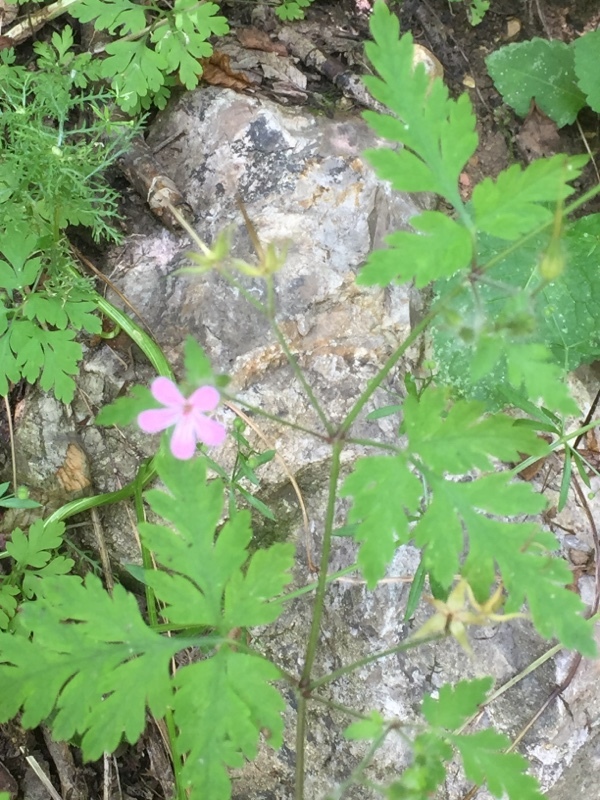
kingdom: Plantae
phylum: Tracheophyta
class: Magnoliopsida
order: Geraniales
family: Geraniaceae
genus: Geranium
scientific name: Geranium robertianum
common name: Herb-robert
